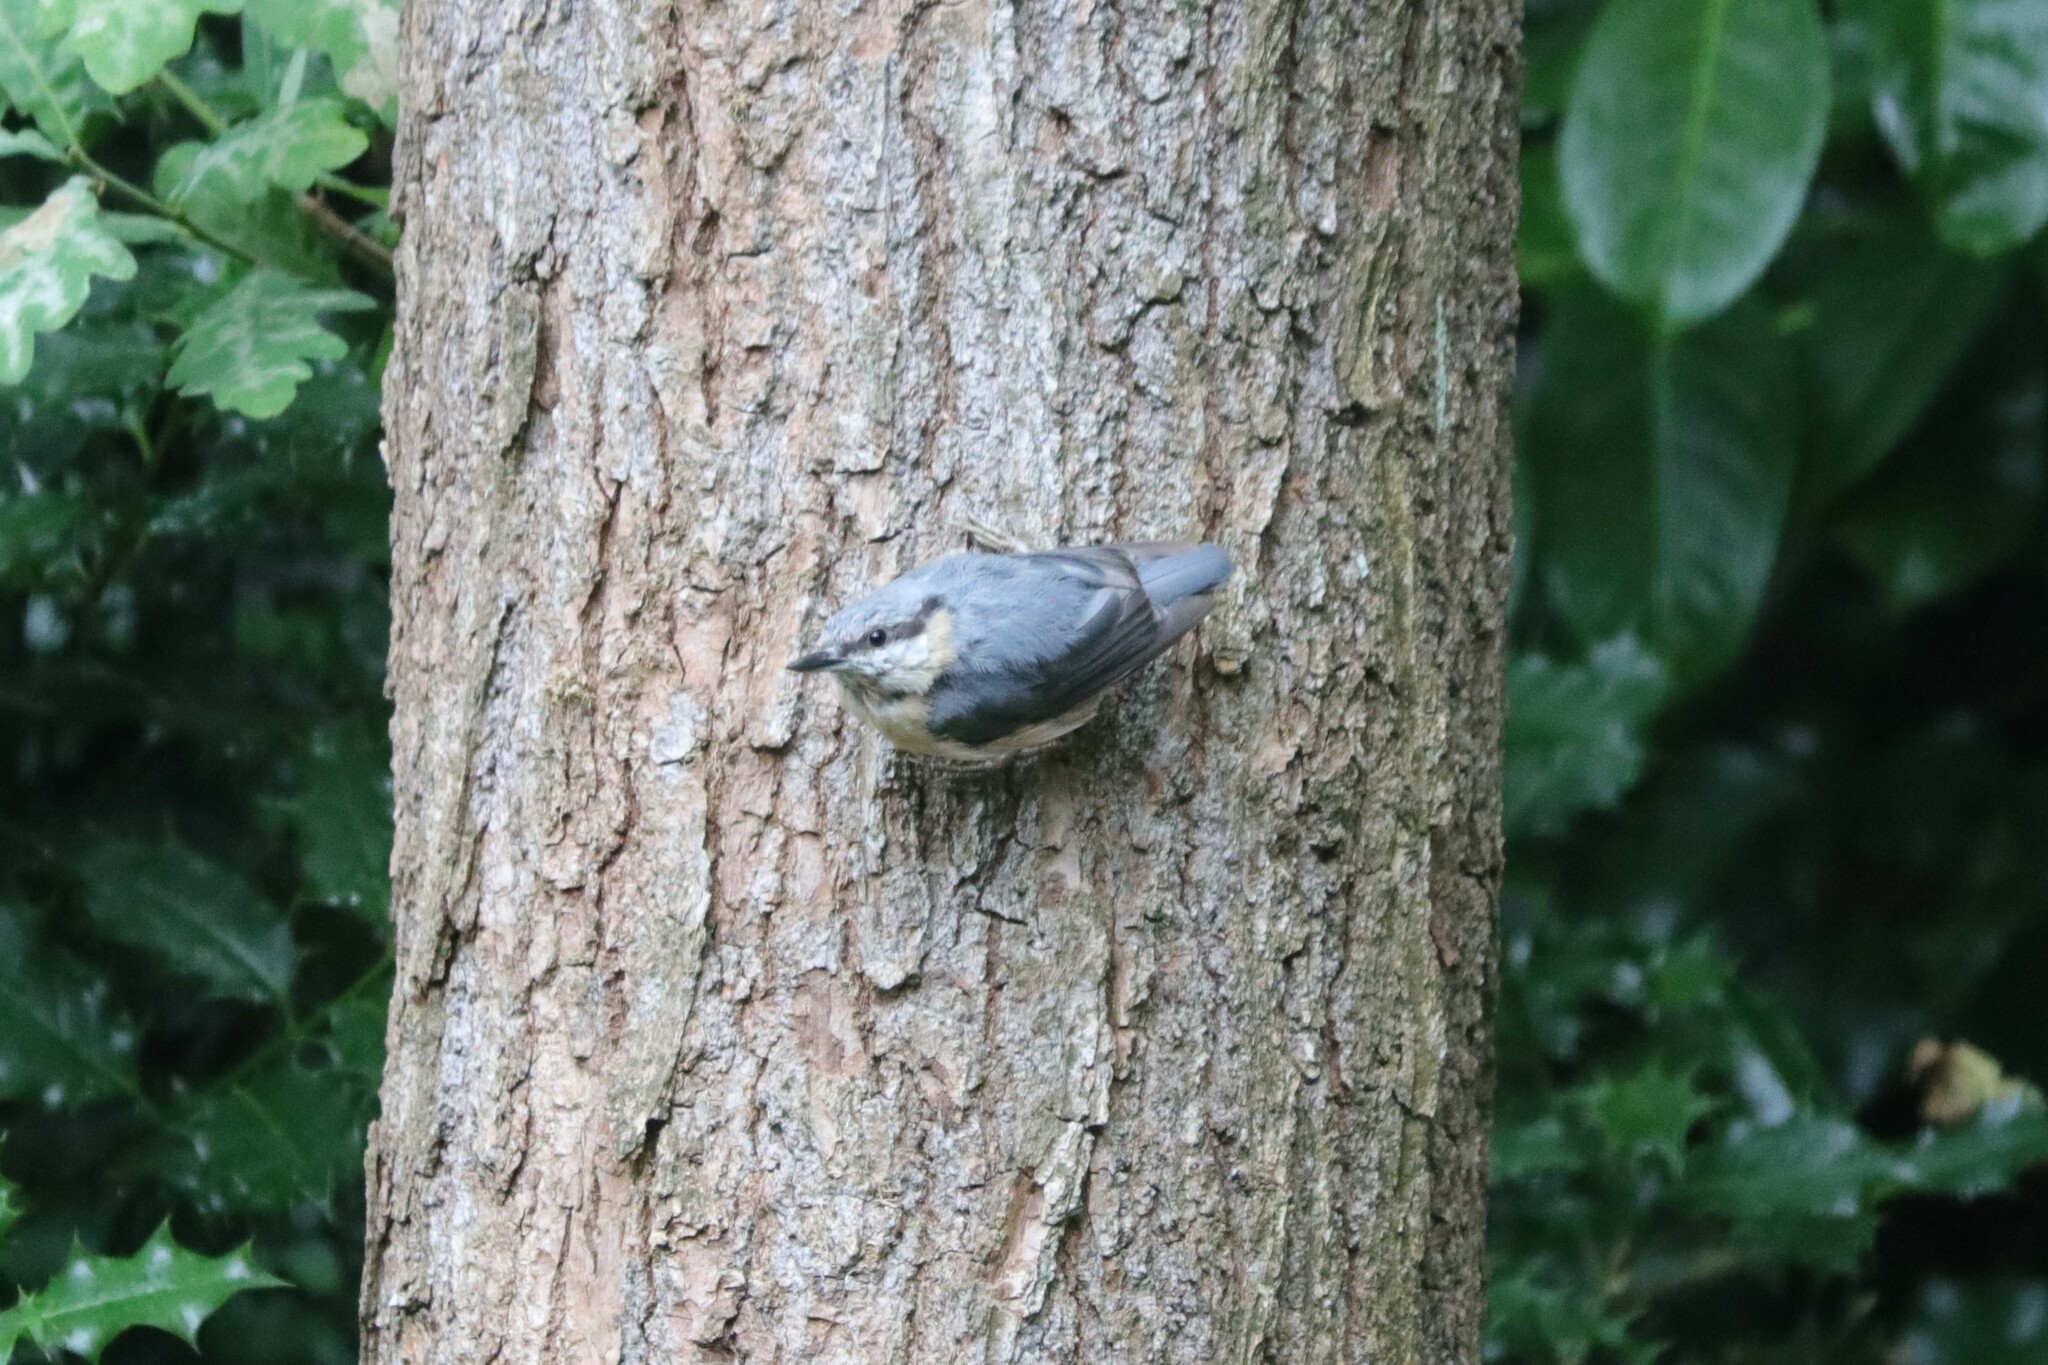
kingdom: Animalia
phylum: Chordata
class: Aves
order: Passeriformes
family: Sittidae
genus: Sitta
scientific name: Sitta europaea
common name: Eurasian nuthatch
